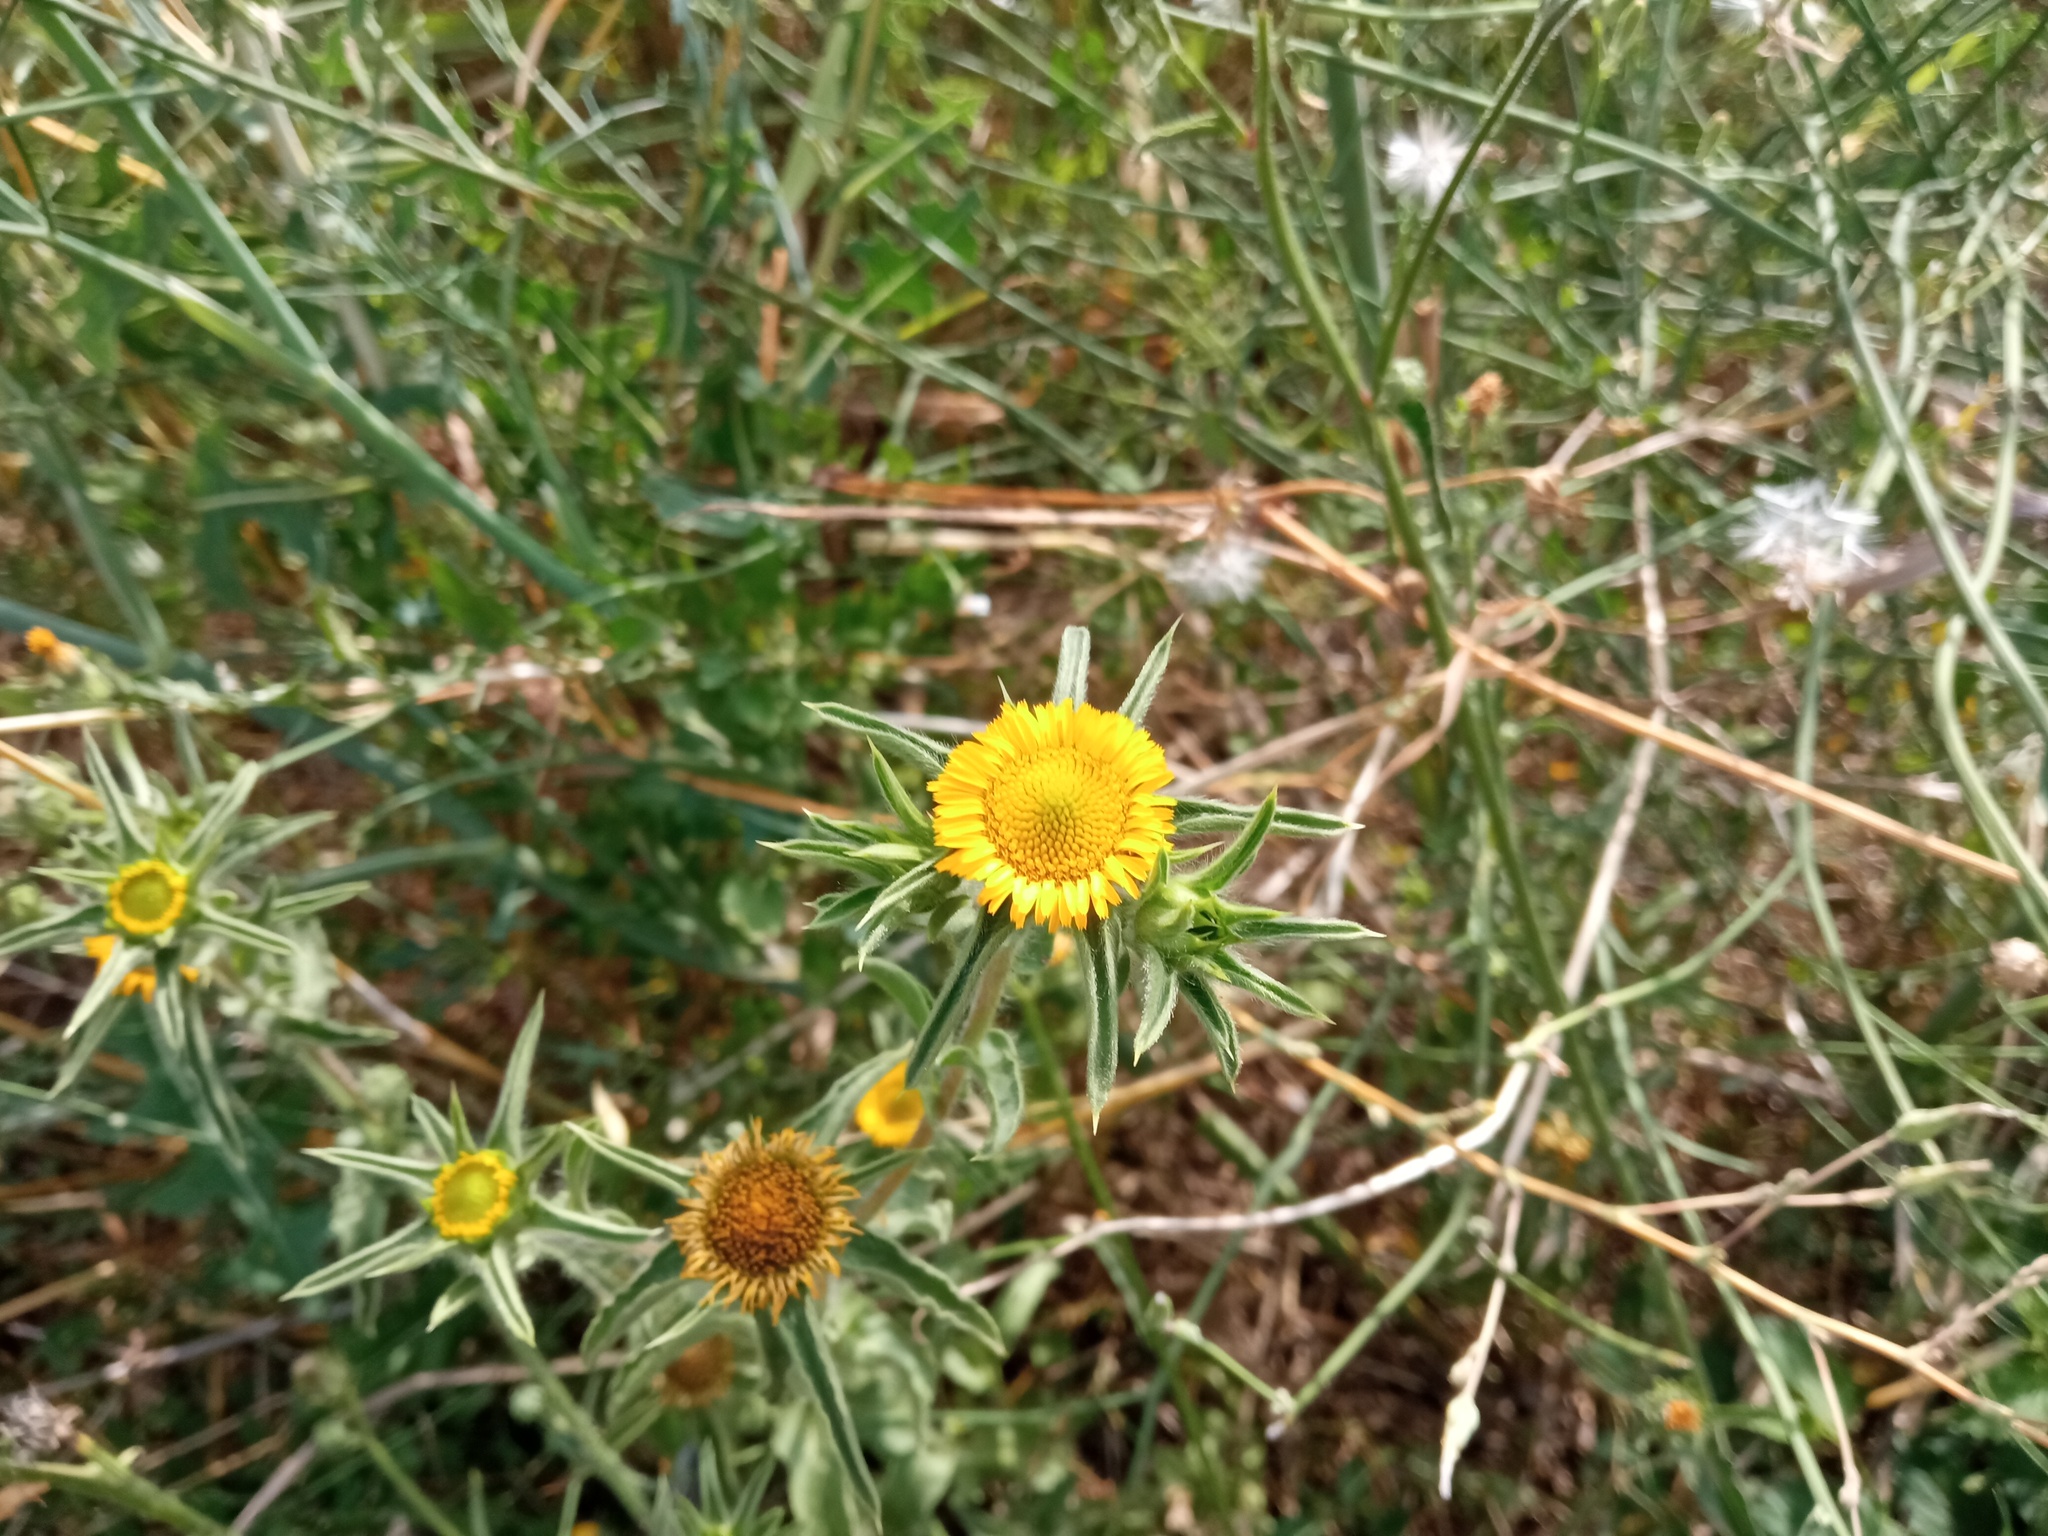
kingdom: Plantae
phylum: Tracheophyta
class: Magnoliopsida
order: Asterales
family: Asteraceae
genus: Pallenis
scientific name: Pallenis spinosa
